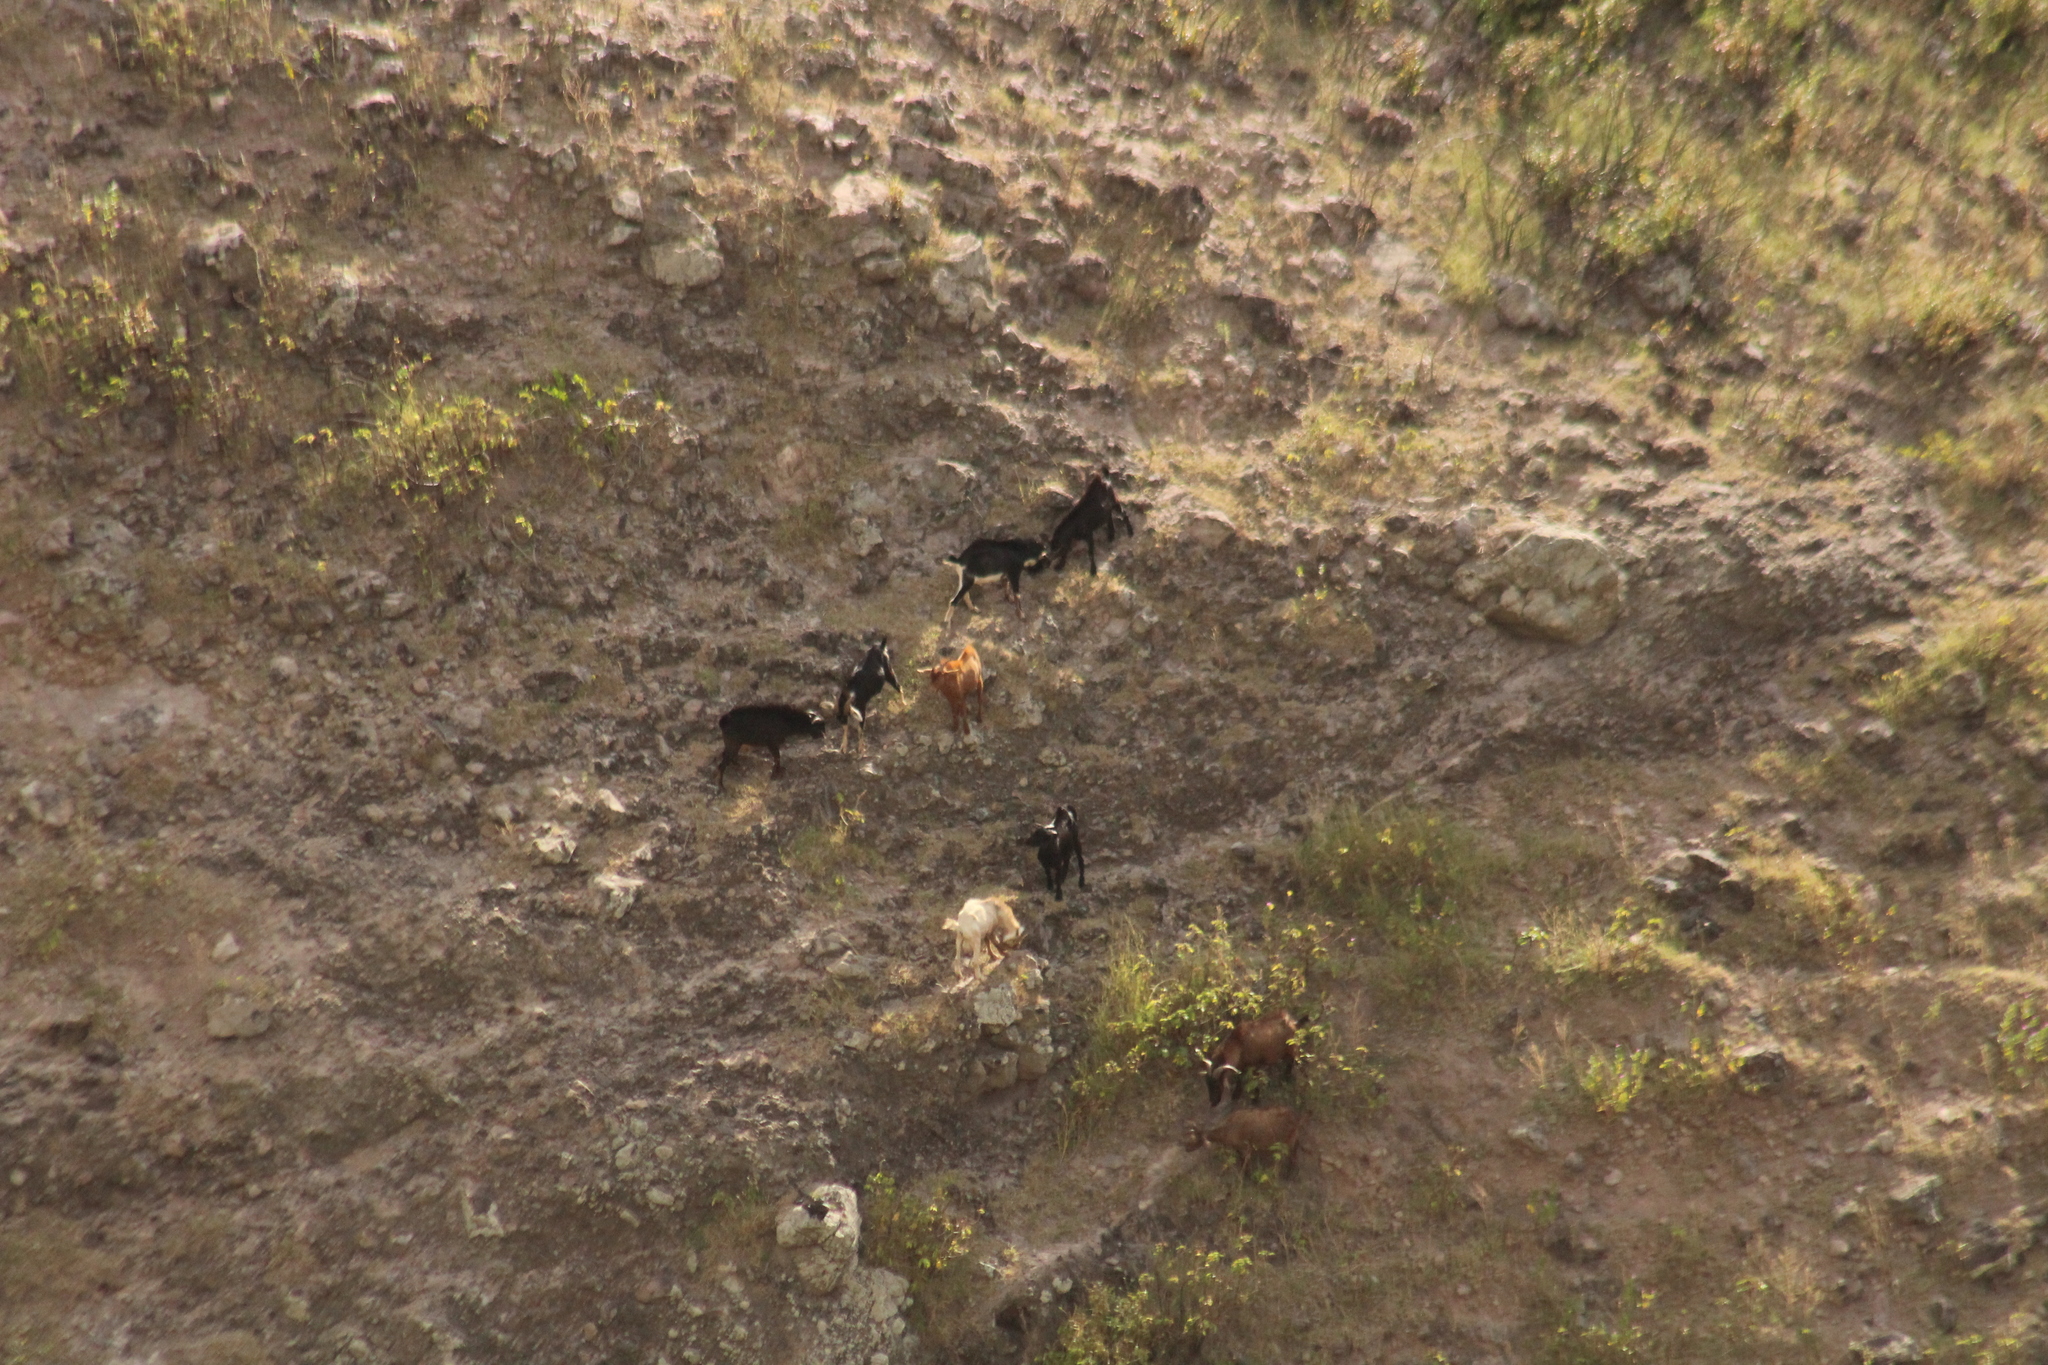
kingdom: Animalia
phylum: Chordata
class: Mammalia
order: Artiodactyla
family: Bovidae
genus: Capra
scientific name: Capra hircus
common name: Domestic goat
